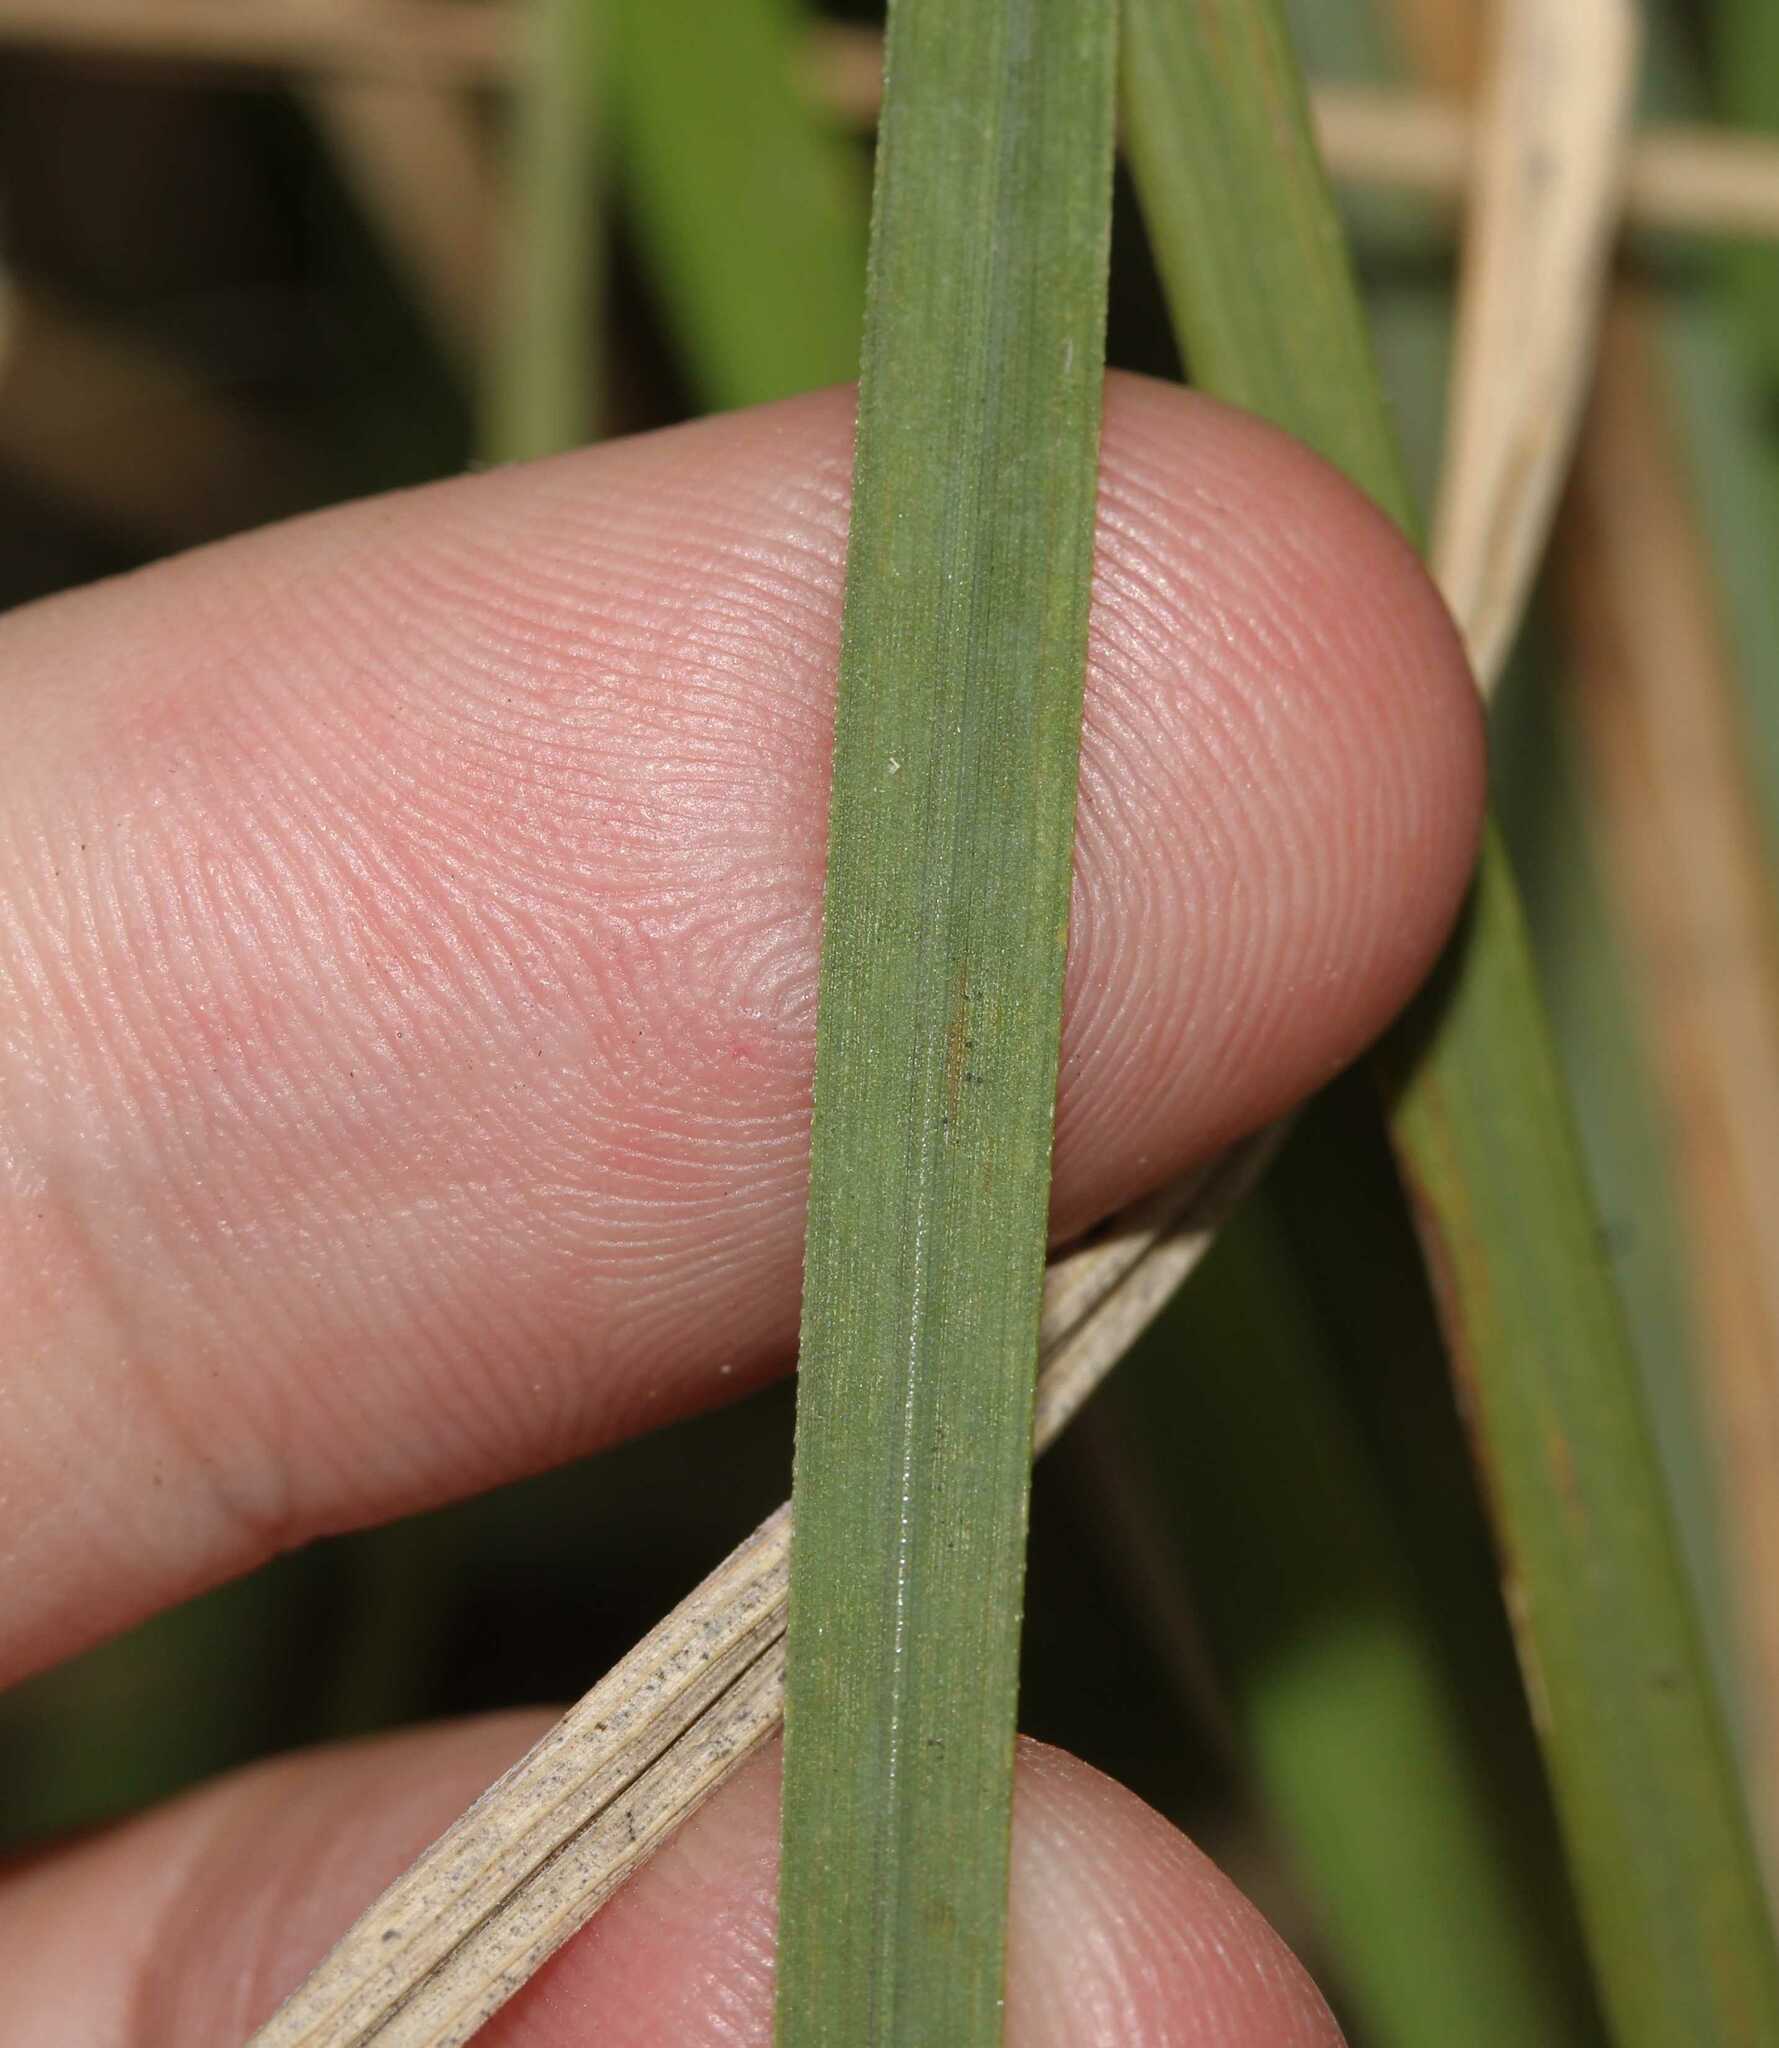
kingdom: Plantae
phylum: Tracheophyta
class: Liliopsida
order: Poales
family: Poaceae
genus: Muhlenbergia
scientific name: Muhlenbergia robusta
